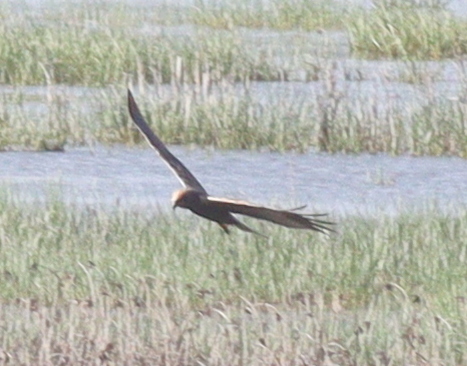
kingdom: Animalia
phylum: Chordata
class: Aves
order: Accipitriformes
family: Accipitridae
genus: Circus
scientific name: Circus aeruginosus
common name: Western marsh harrier
